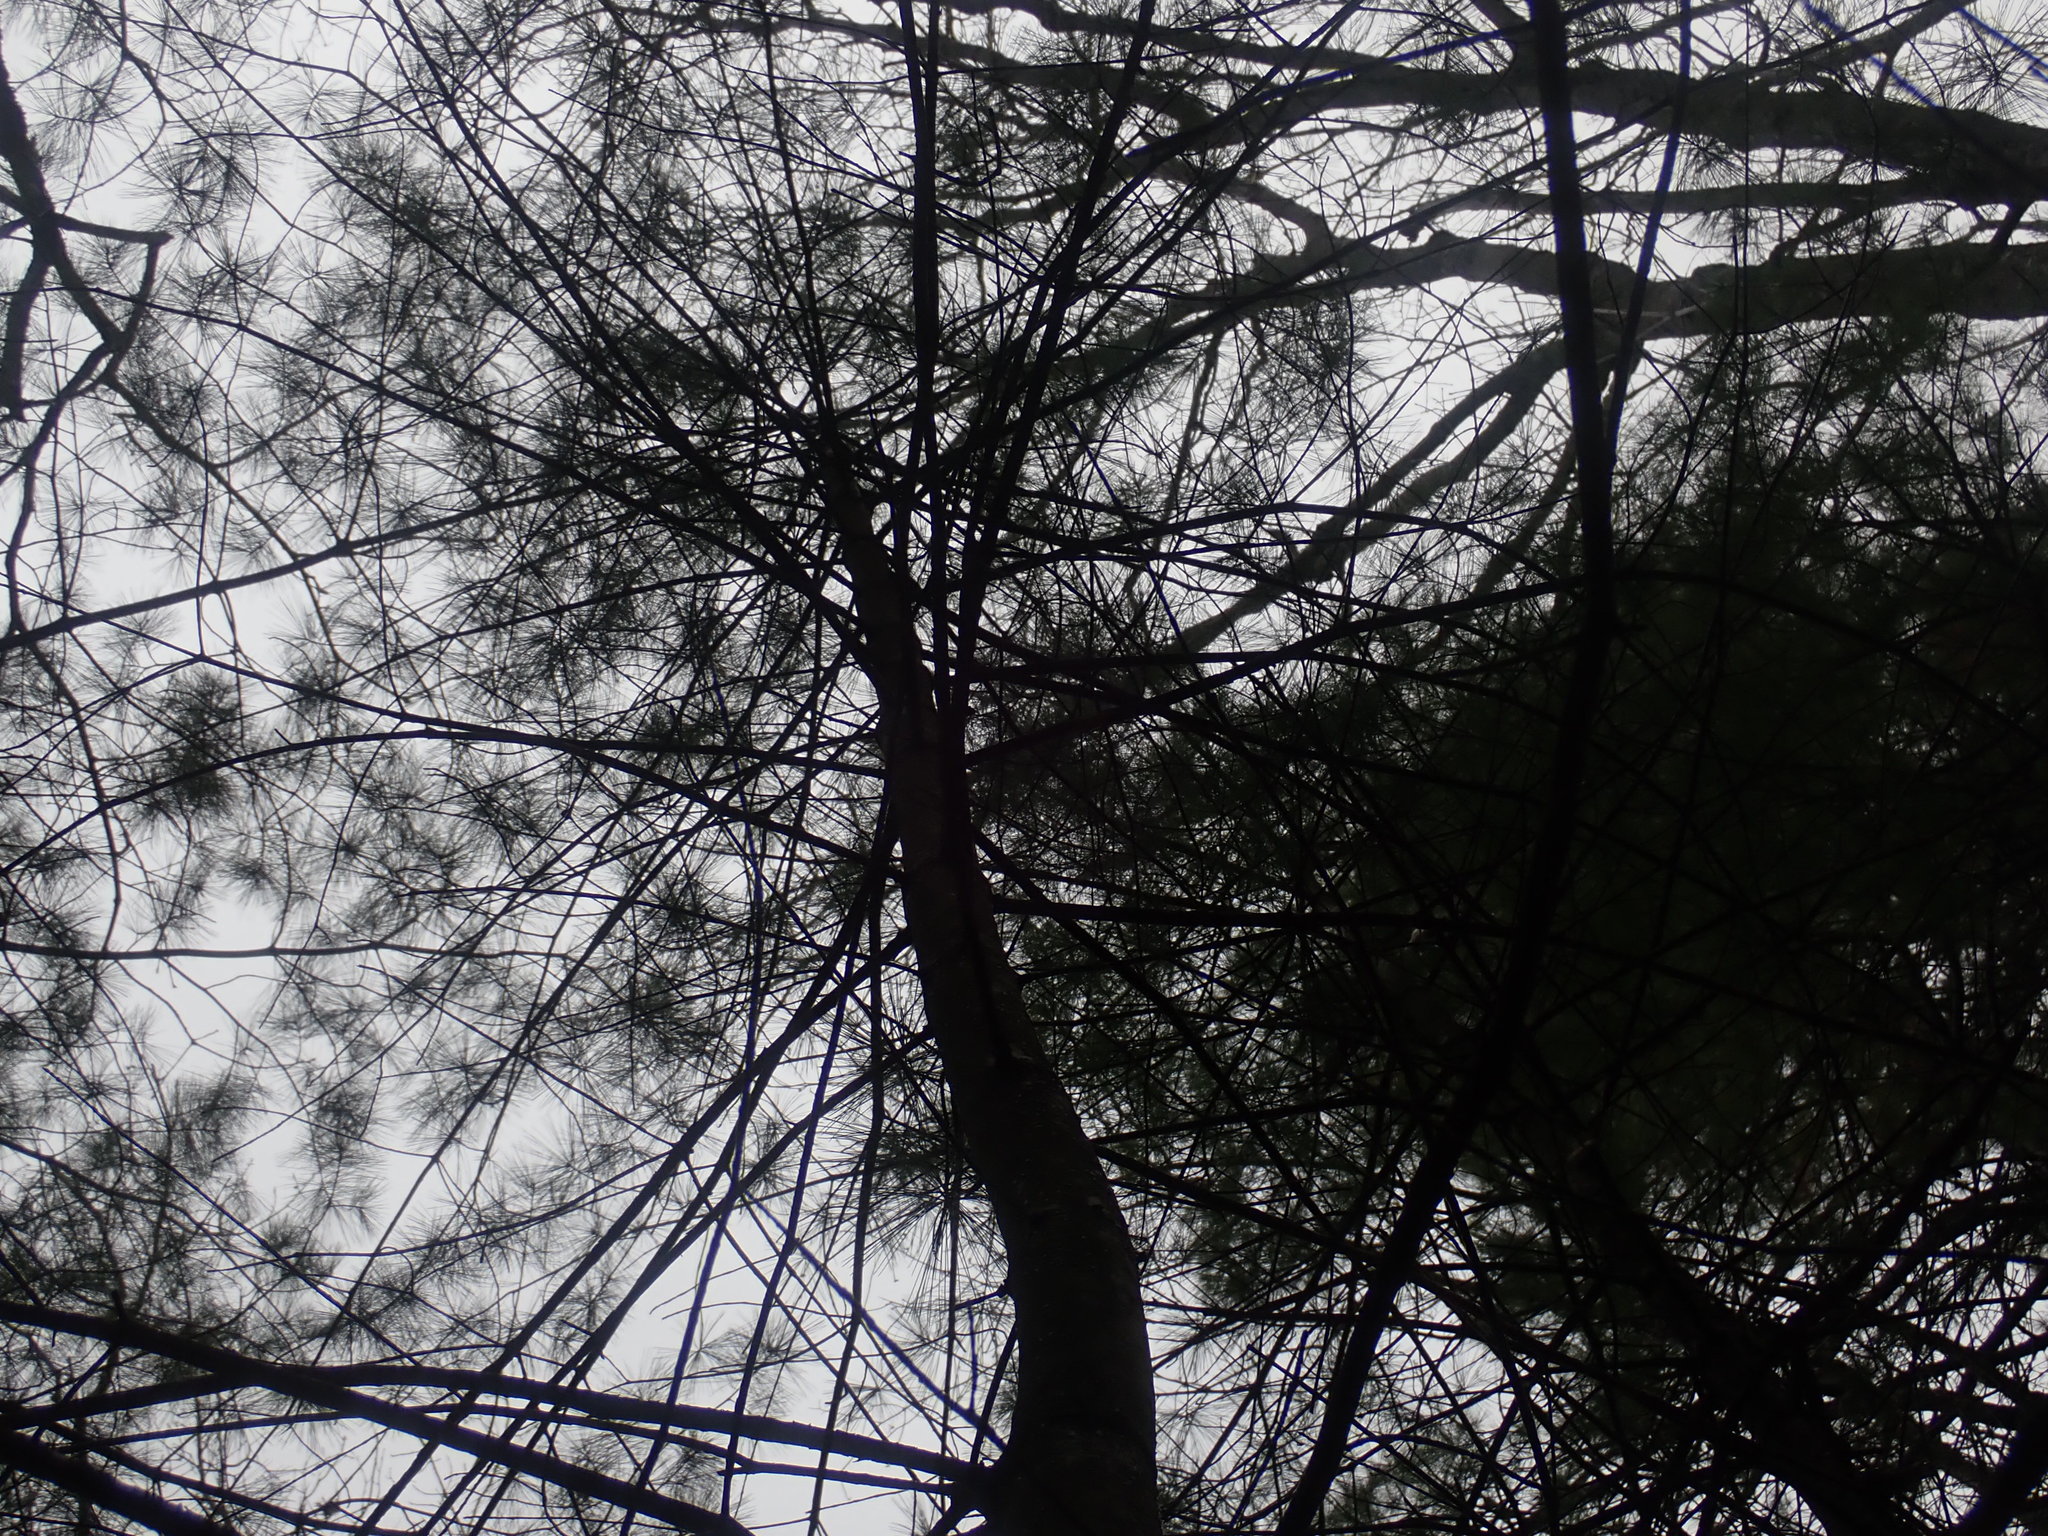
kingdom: Animalia
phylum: Arthropoda
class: Insecta
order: Hemiptera
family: Adelgidae
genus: Pineus
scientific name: Pineus strobi
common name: Pine bark adelgid
